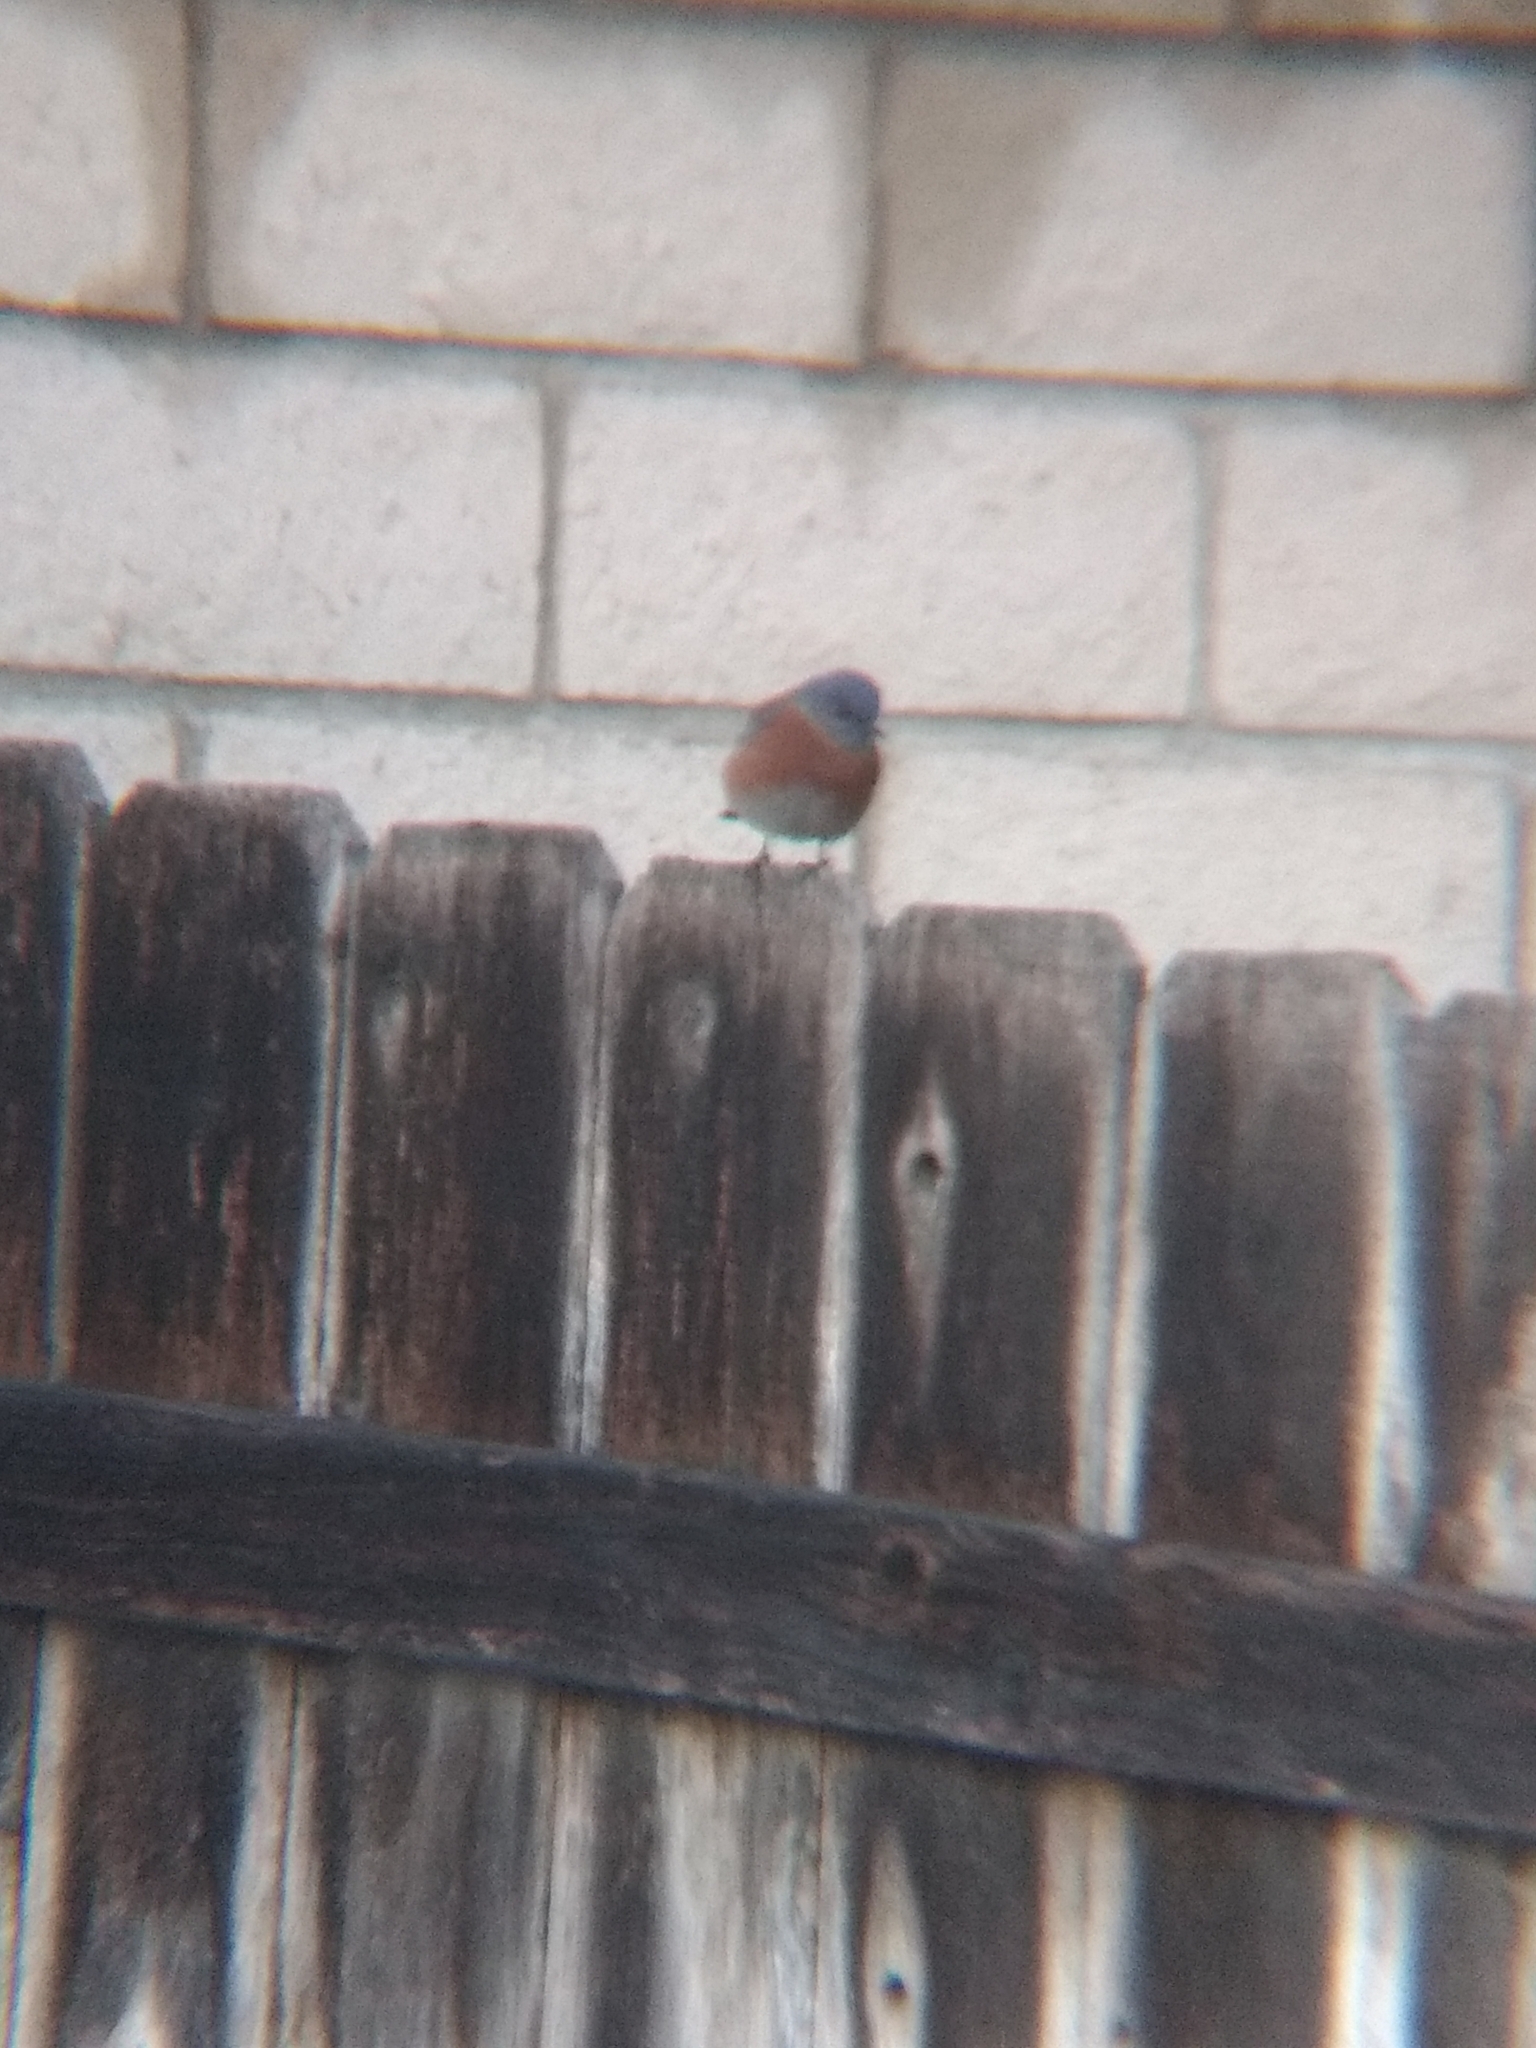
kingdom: Animalia
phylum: Chordata
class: Aves
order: Passeriformes
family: Turdidae
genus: Sialia
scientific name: Sialia mexicana
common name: Western bluebird
